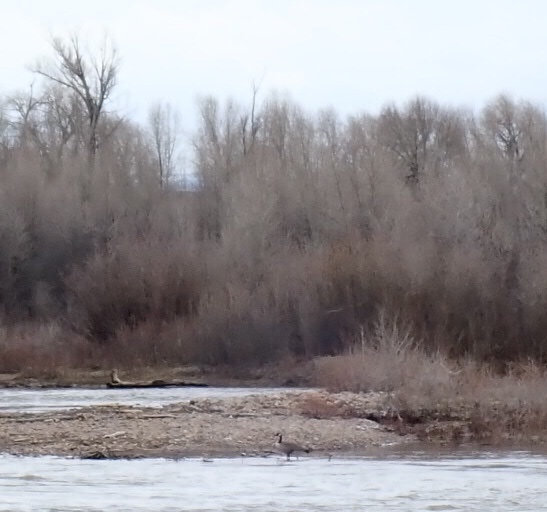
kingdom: Animalia
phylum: Chordata
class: Aves
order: Anseriformes
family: Anatidae
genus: Branta
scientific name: Branta canadensis
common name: Canada goose
